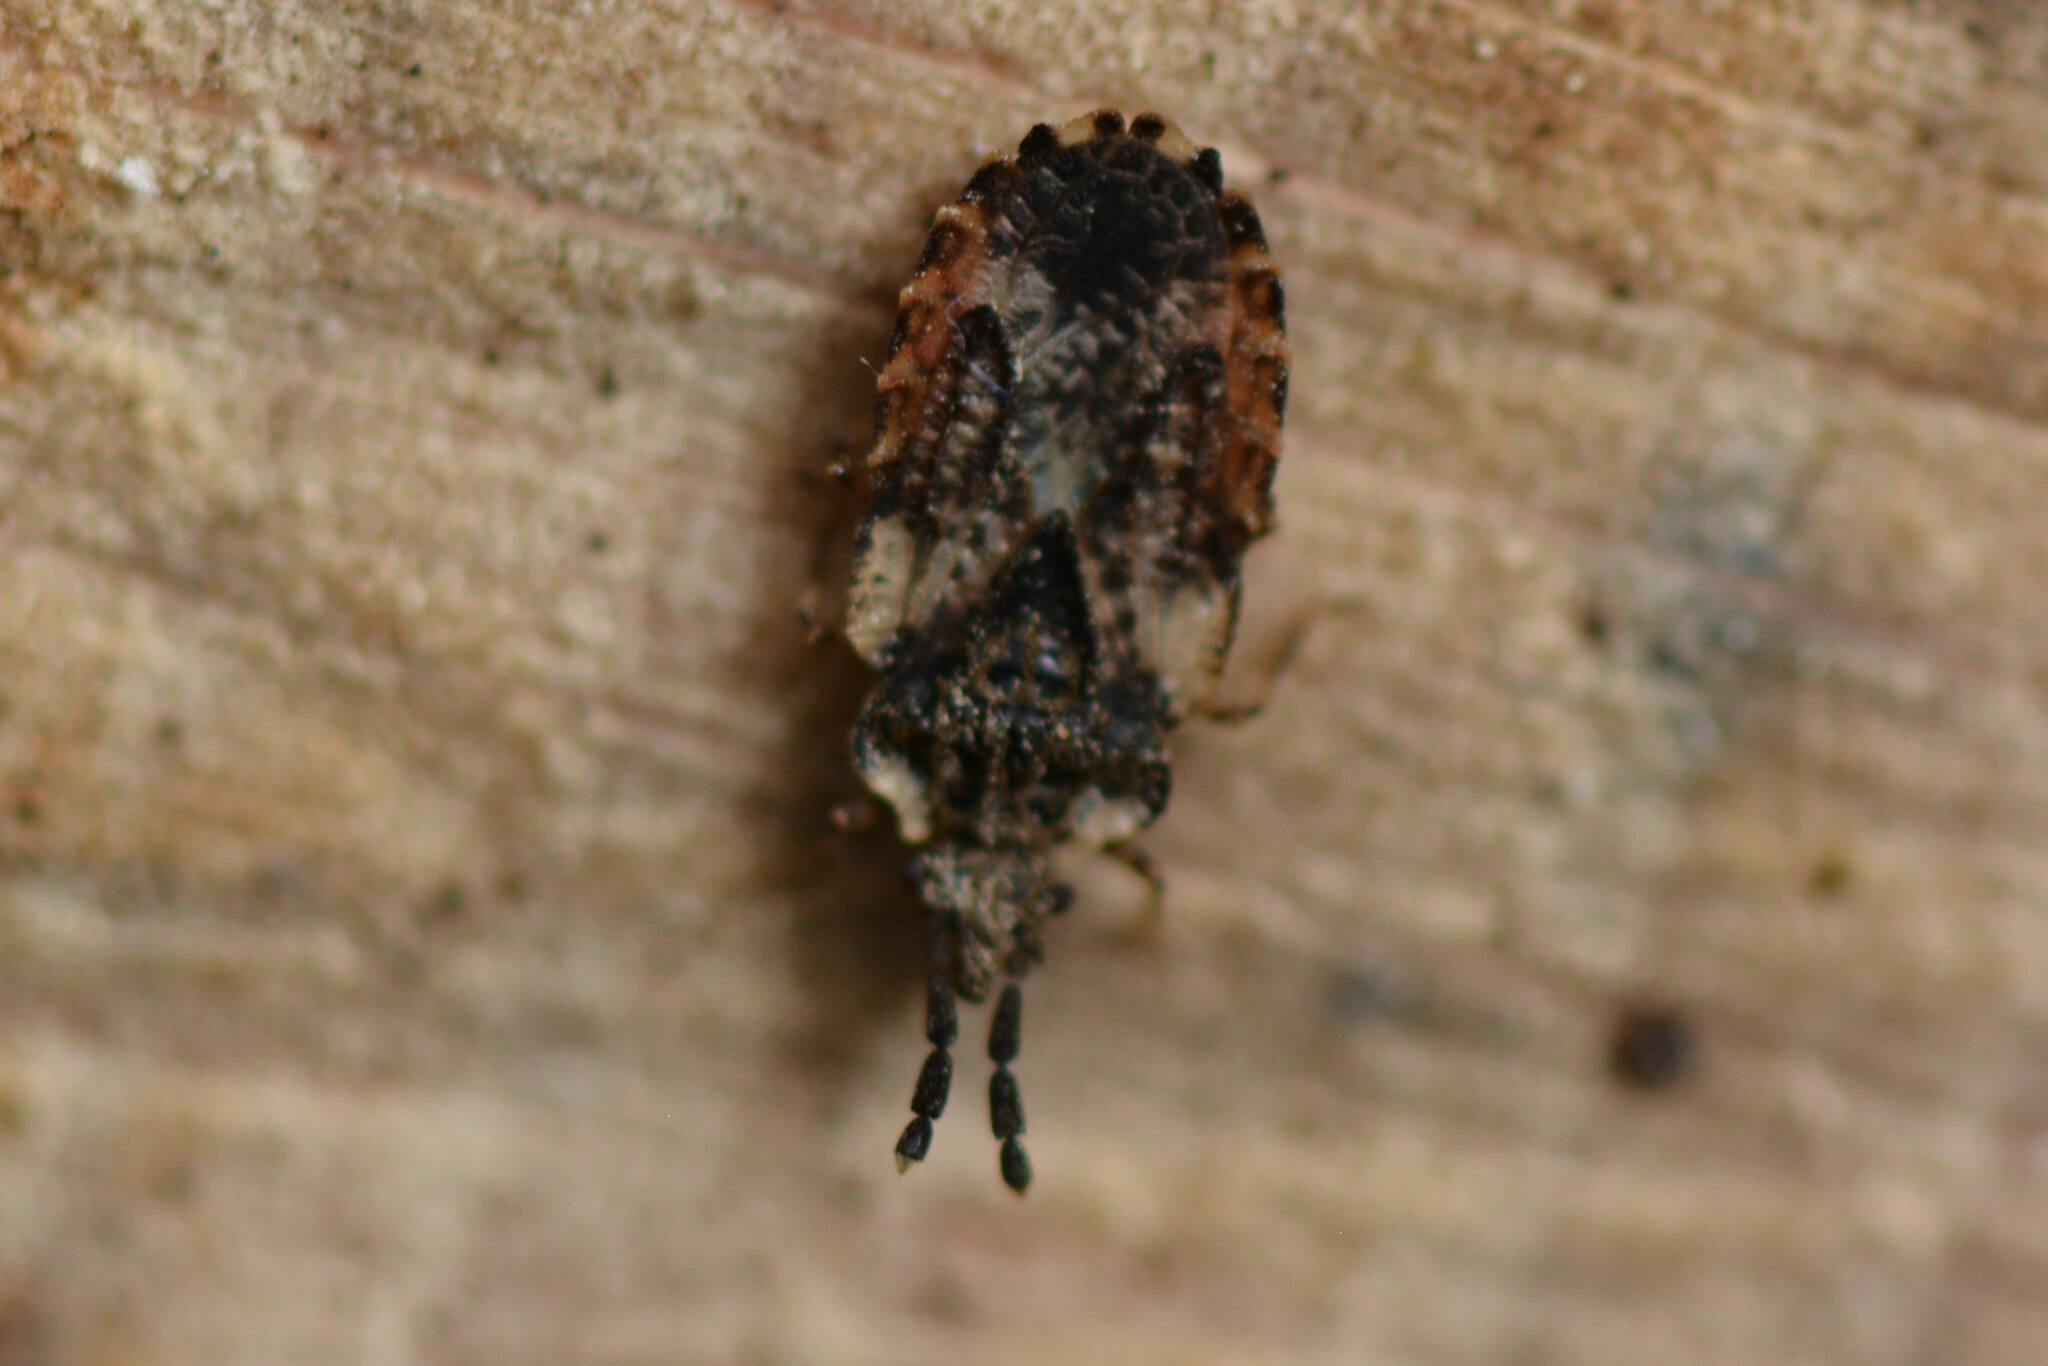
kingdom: Animalia
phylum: Arthropoda
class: Insecta
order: Hemiptera
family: Aradidae
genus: Aradus
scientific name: Aradus depressus
